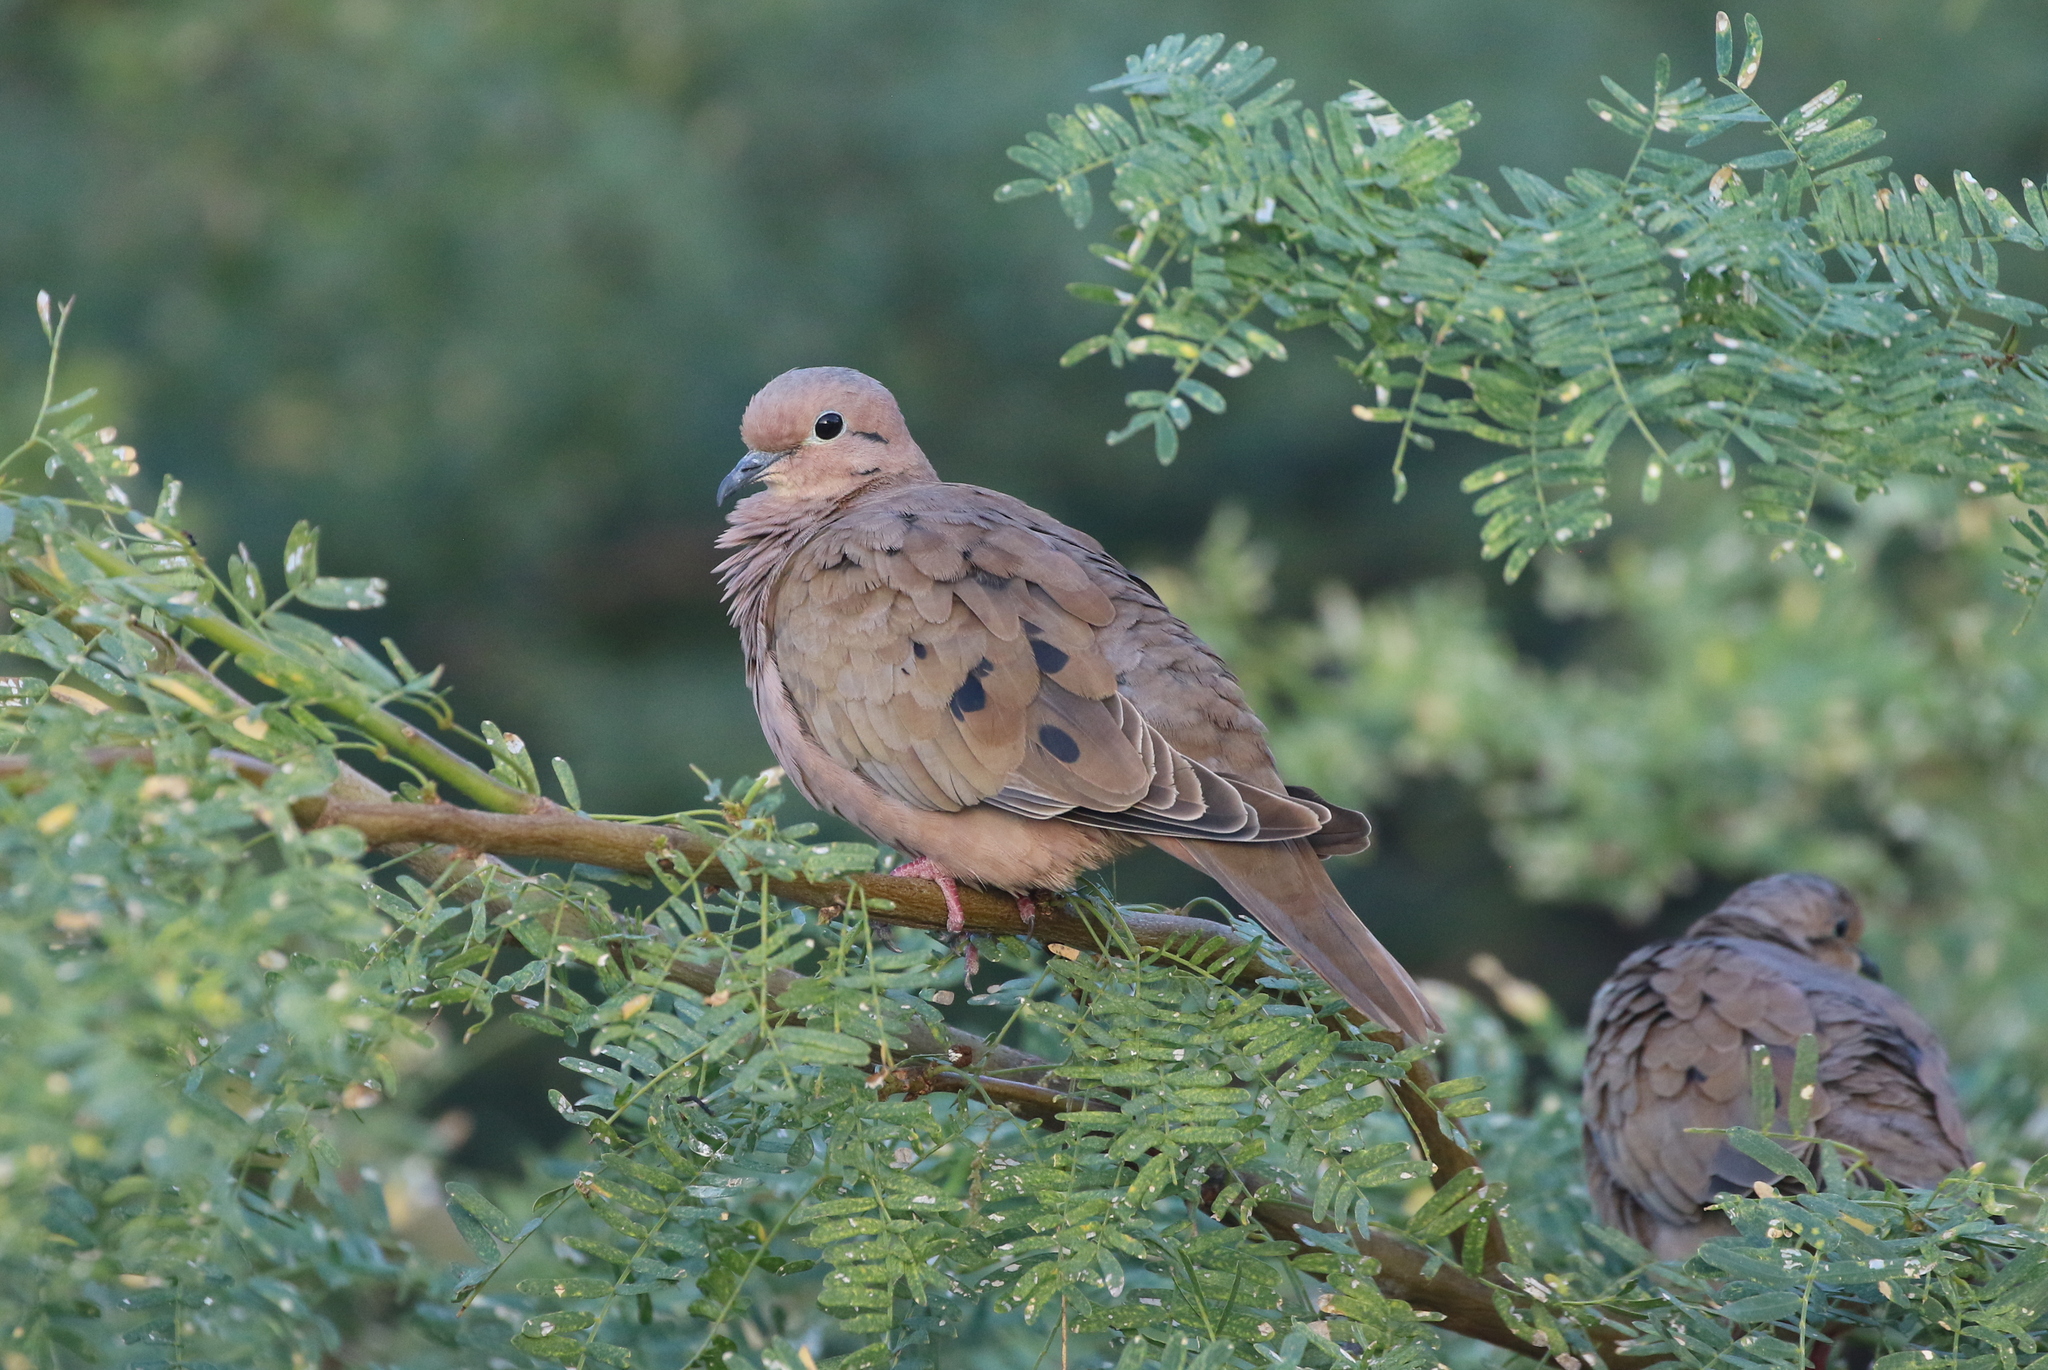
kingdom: Animalia
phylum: Chordata
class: Aves
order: Columbiformes
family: Columbidae
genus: Zenaida
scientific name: Zenaida auriculata
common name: Eared dove
